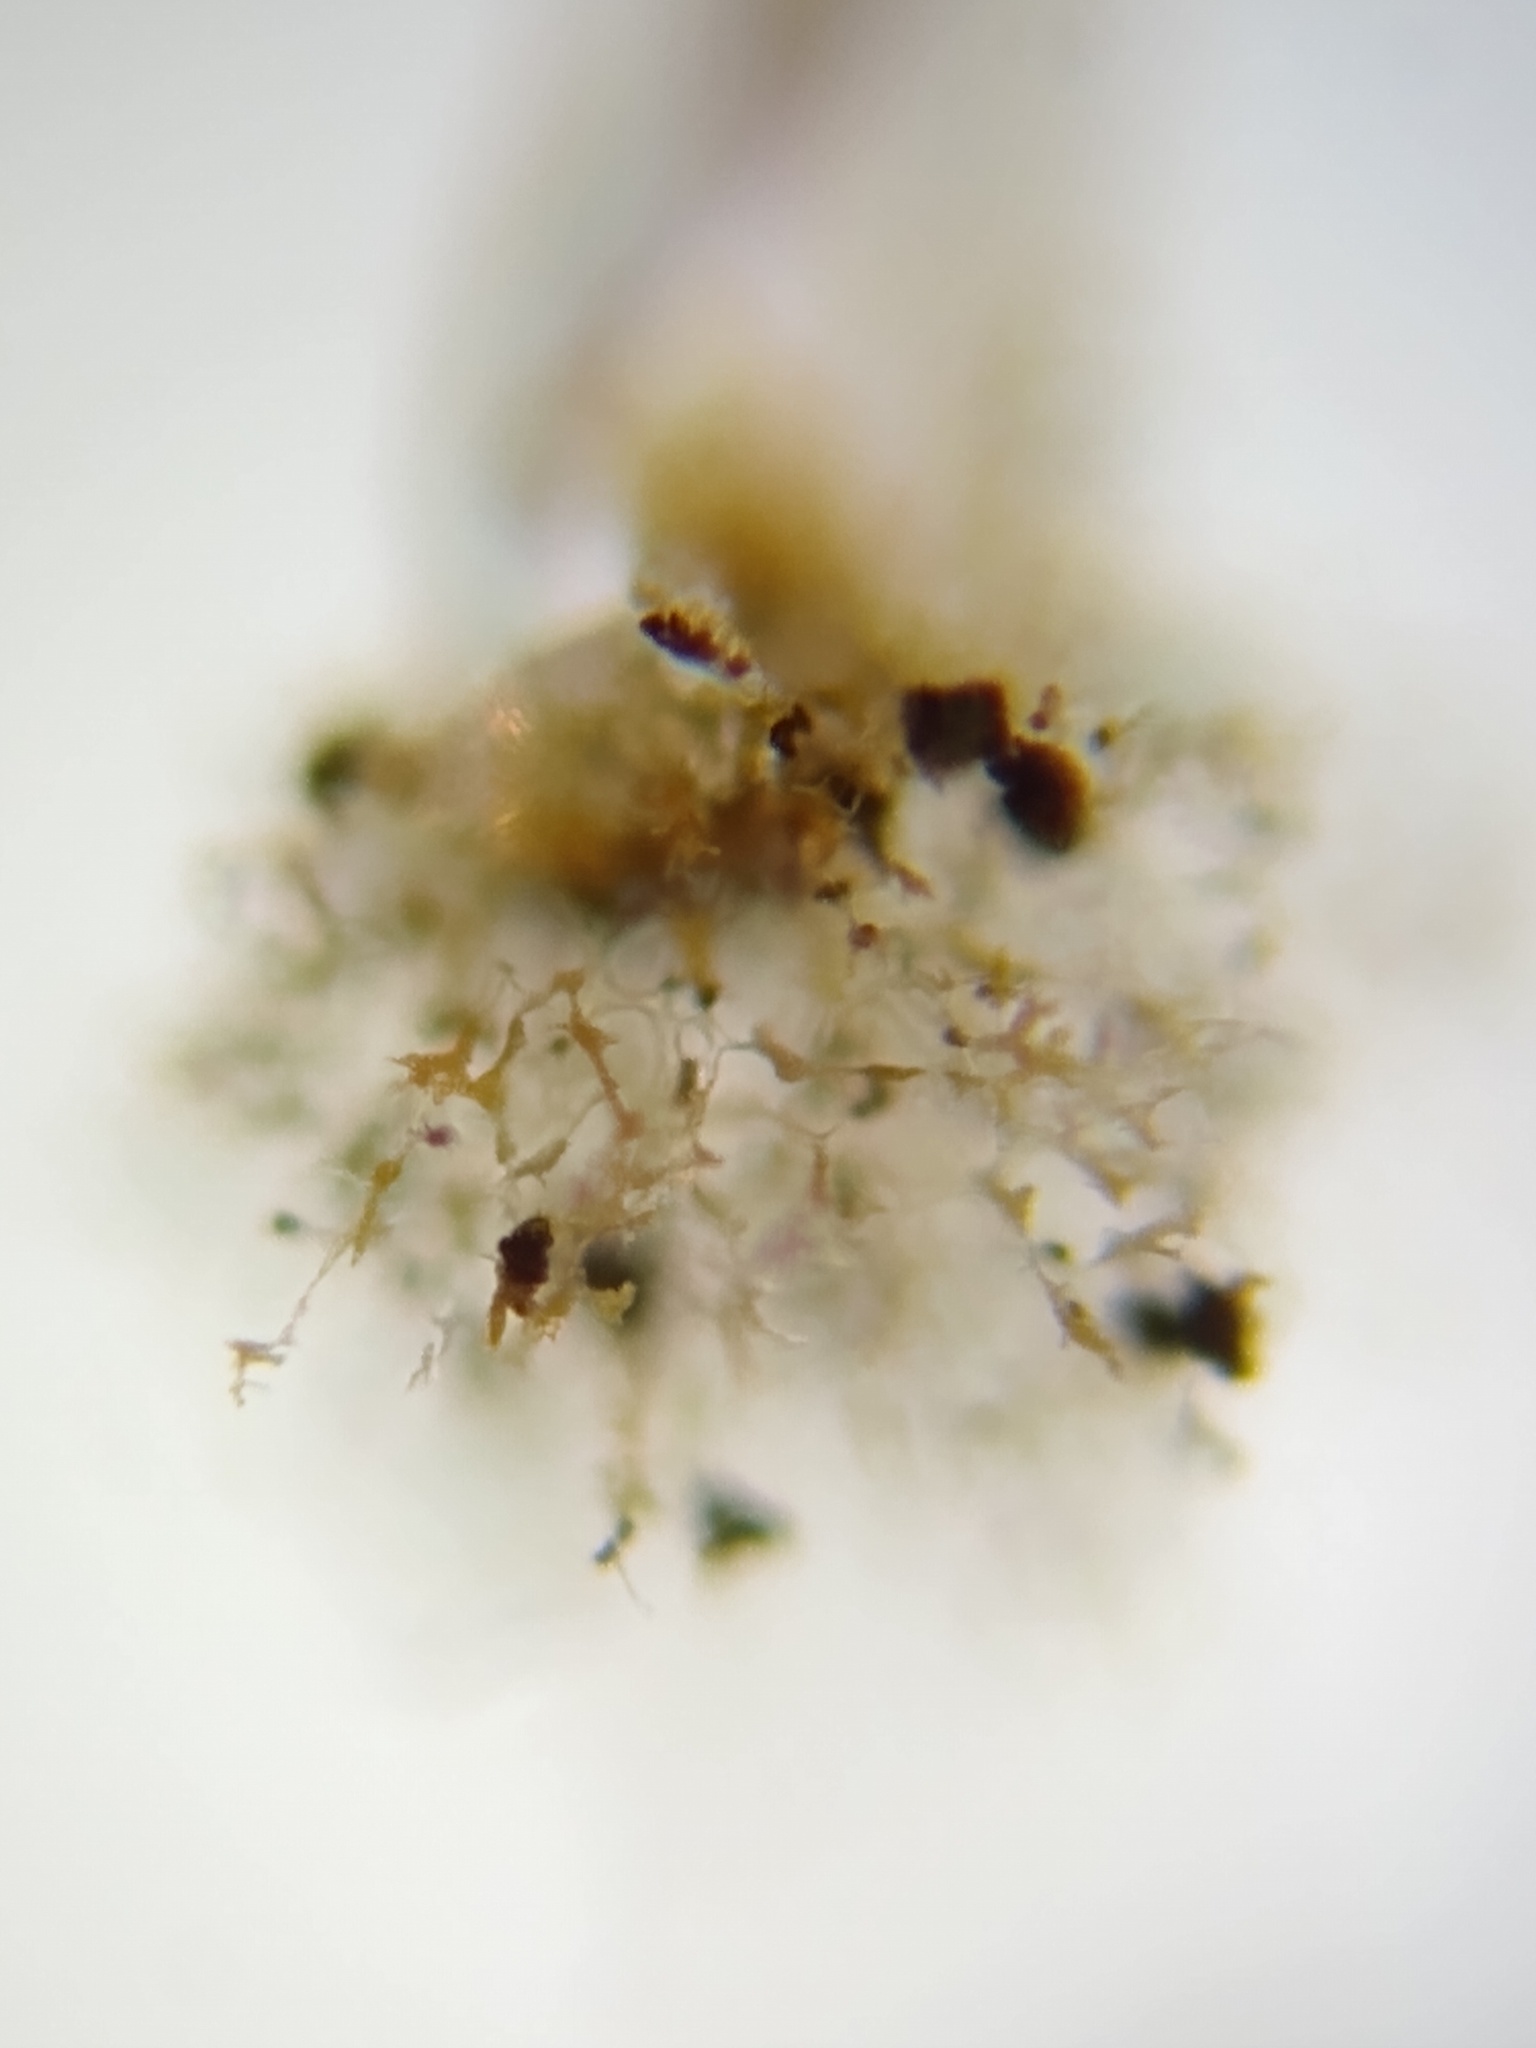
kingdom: Protozoa
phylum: Mycetozoa
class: Myxomycetes
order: Physarales
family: Physaraceae
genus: Physarum
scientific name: Physarum flavicomum
